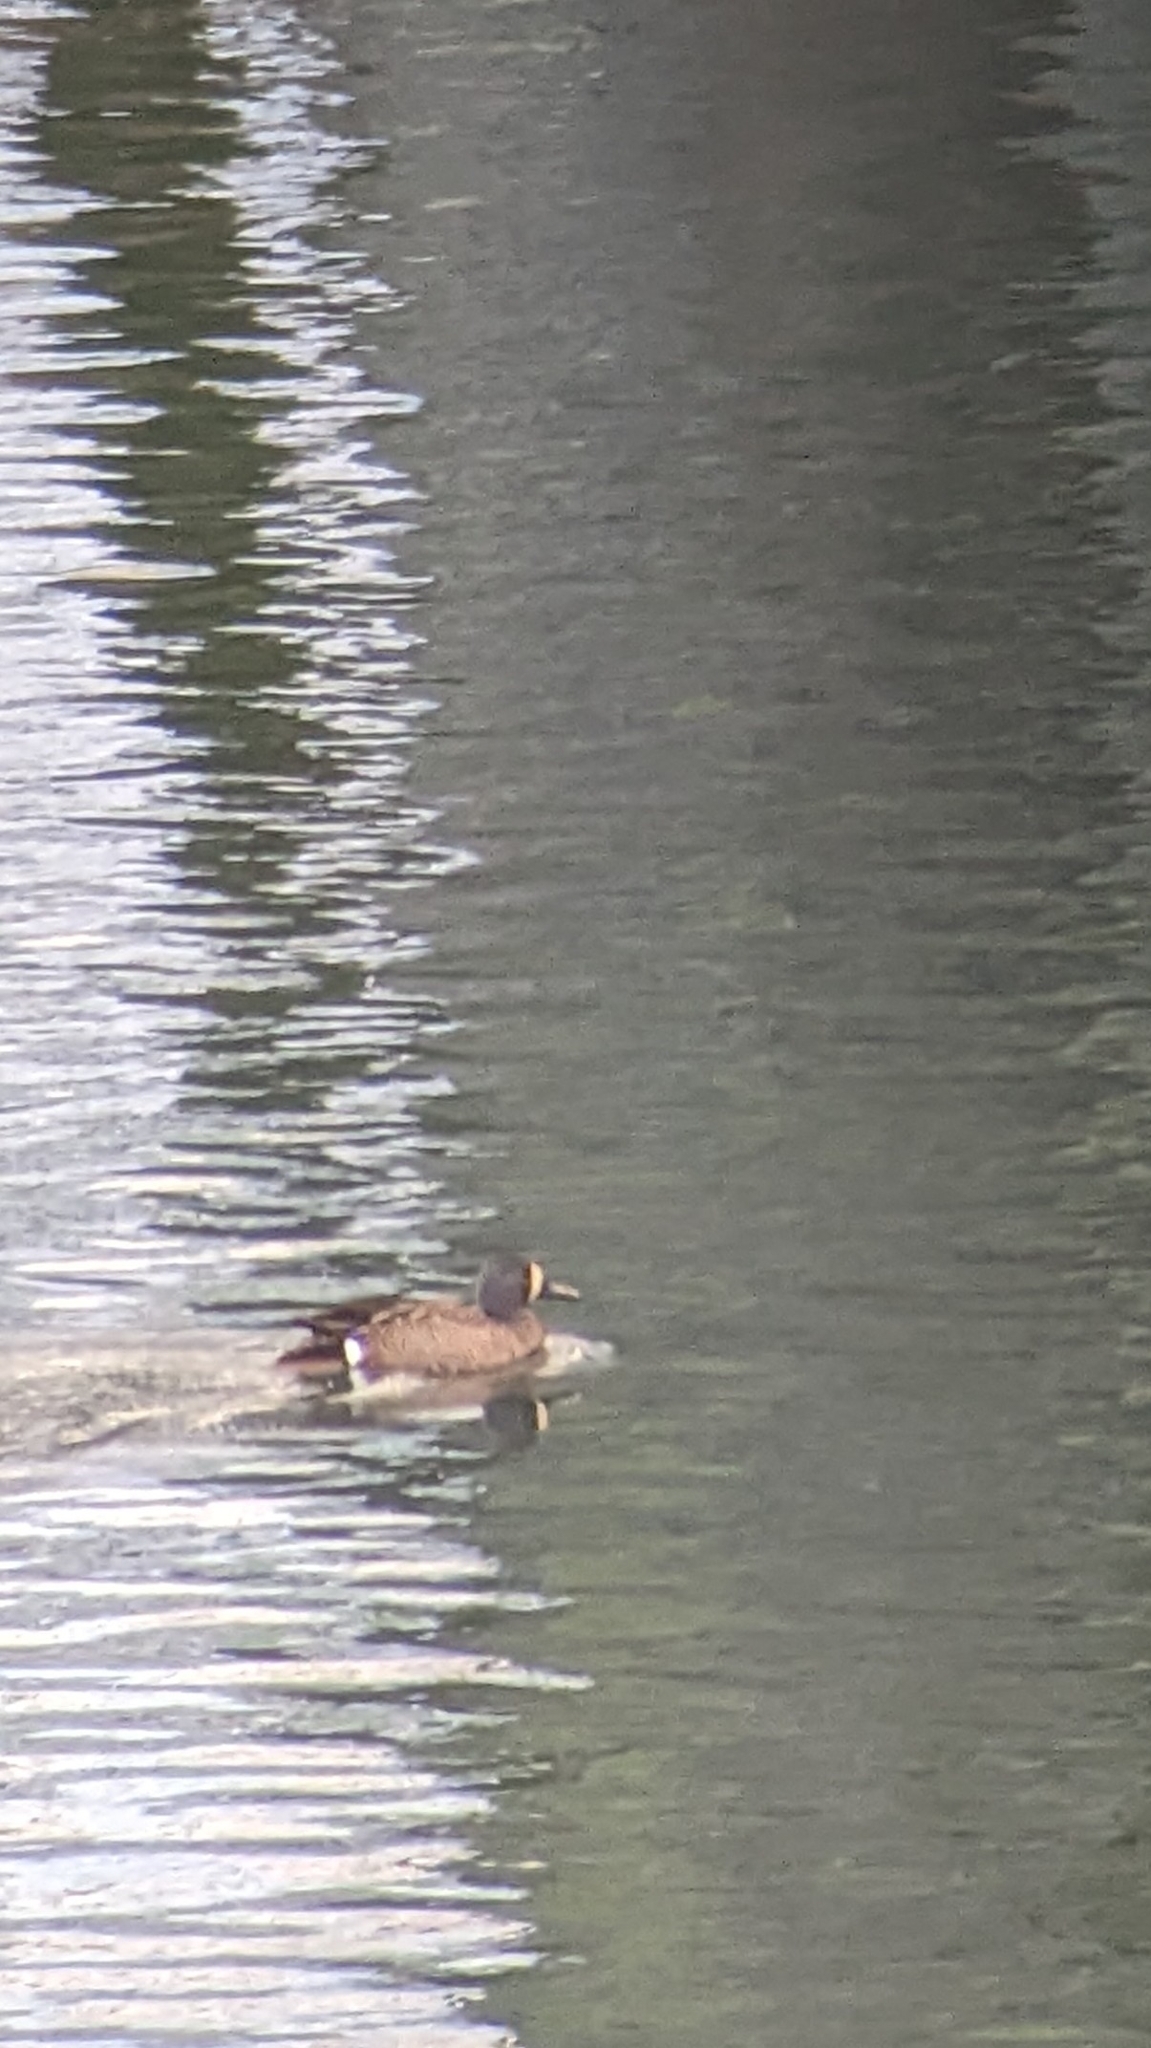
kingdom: Animalia
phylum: Chordata
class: Aves
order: Anseriformes
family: Anatidae
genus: Spatula
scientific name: Spatula discors
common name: Blue-winged teal
